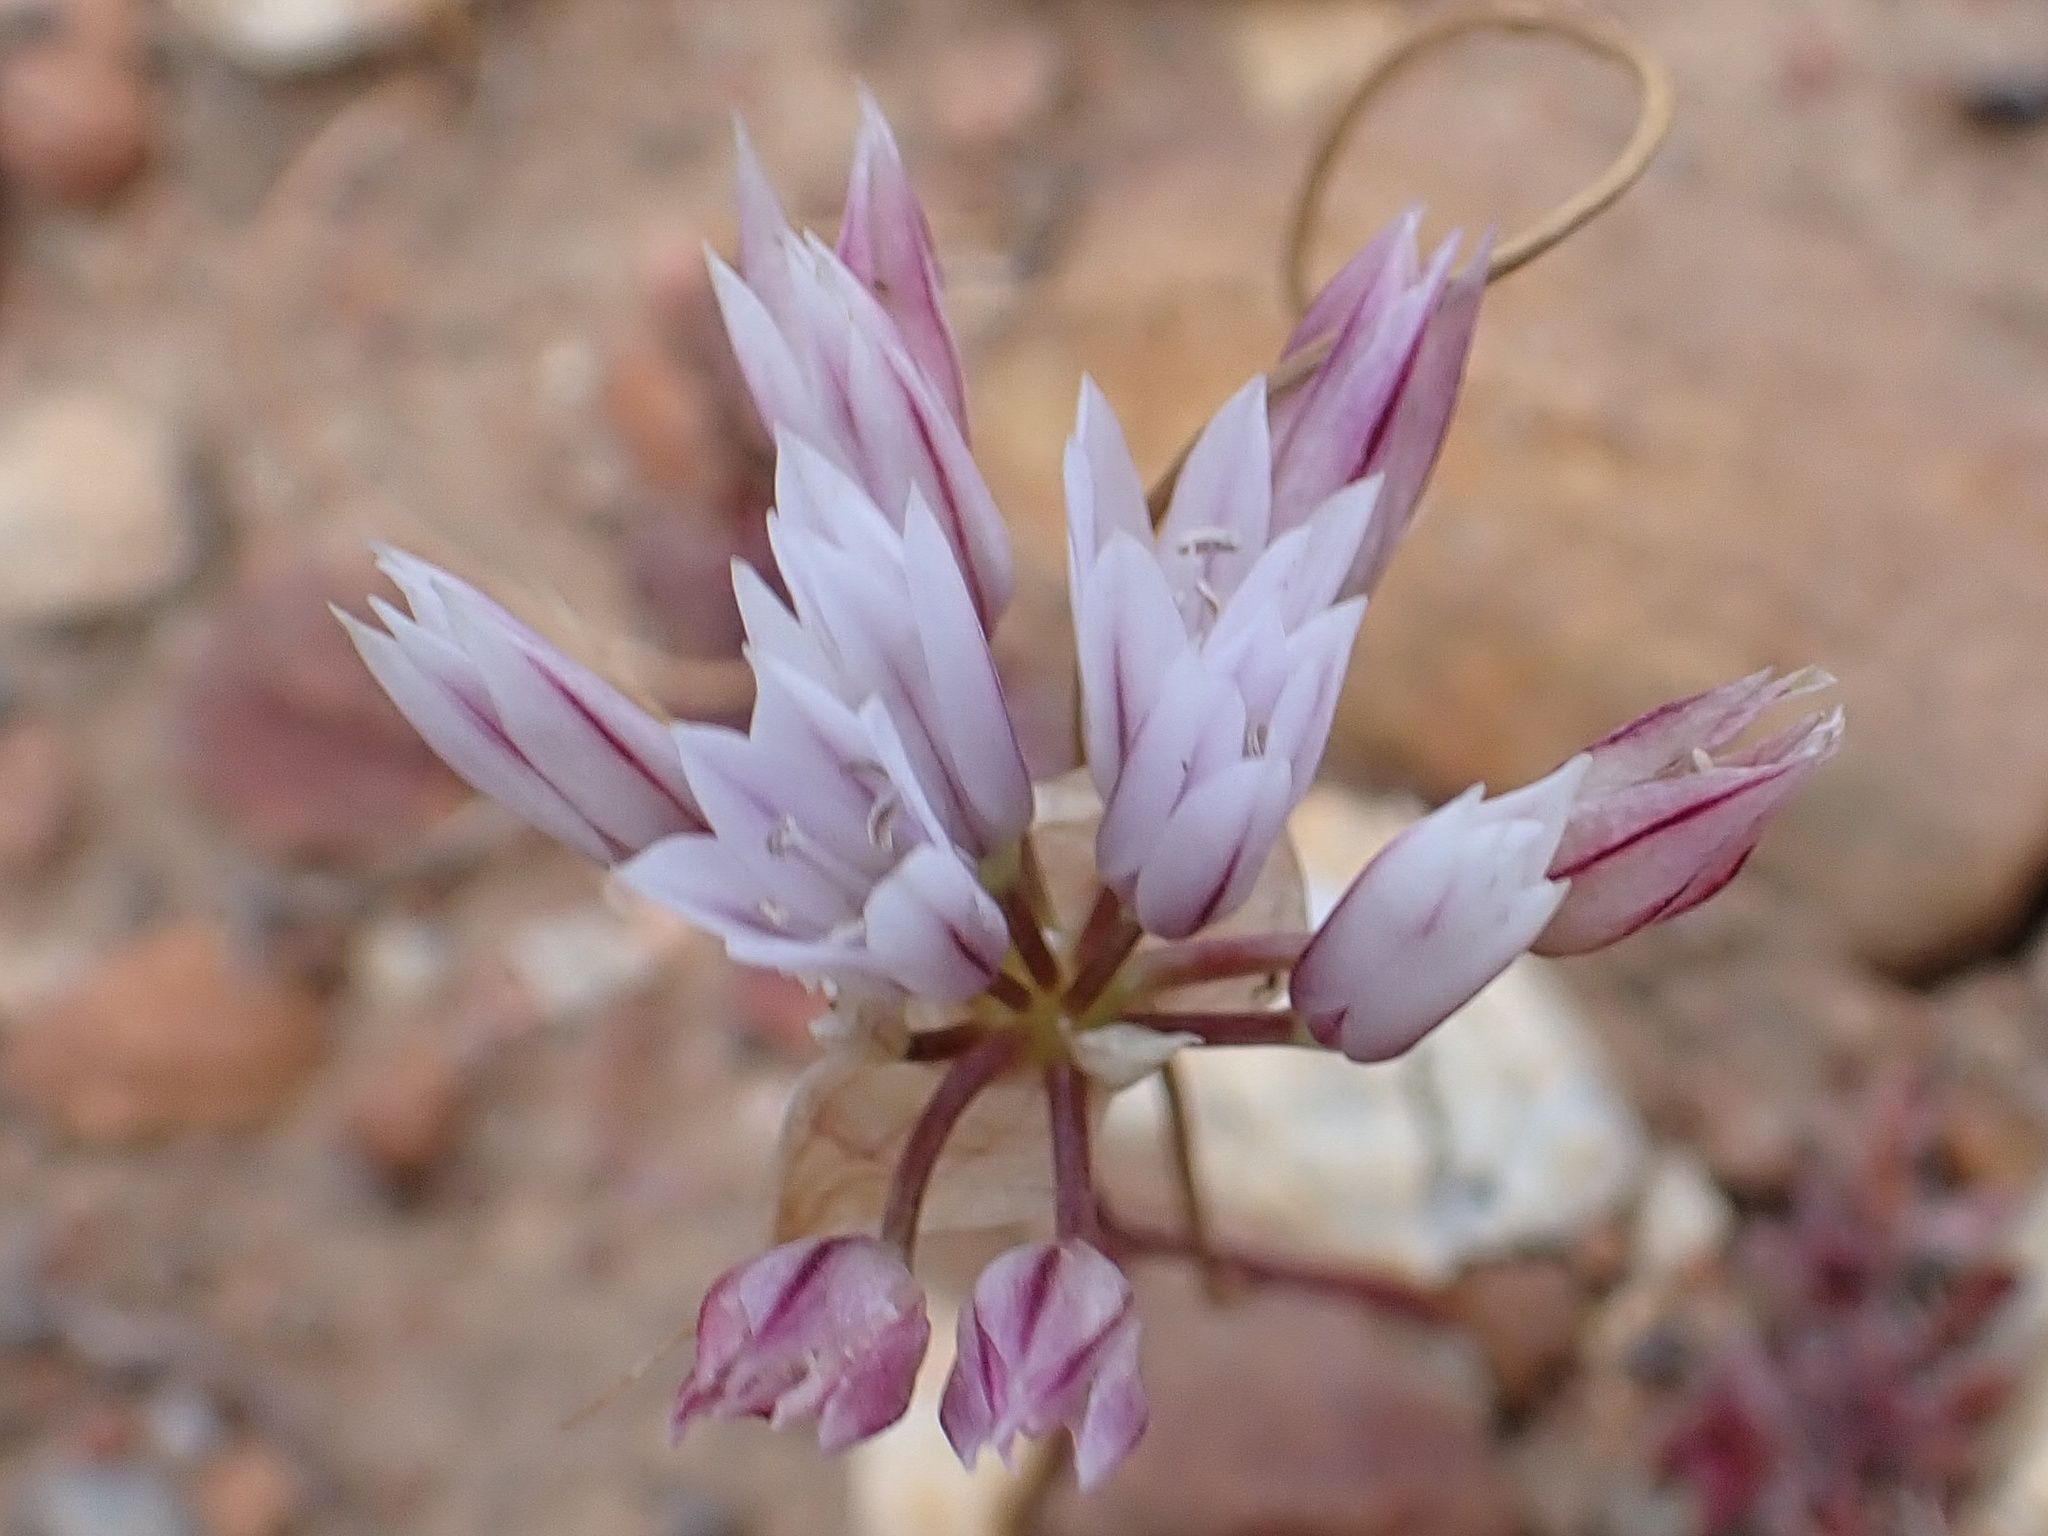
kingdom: Plantae
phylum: Tracheophyta
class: Liliopsida
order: Asparagales
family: Amaryllidaceae
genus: Allium
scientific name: Allium parryi
